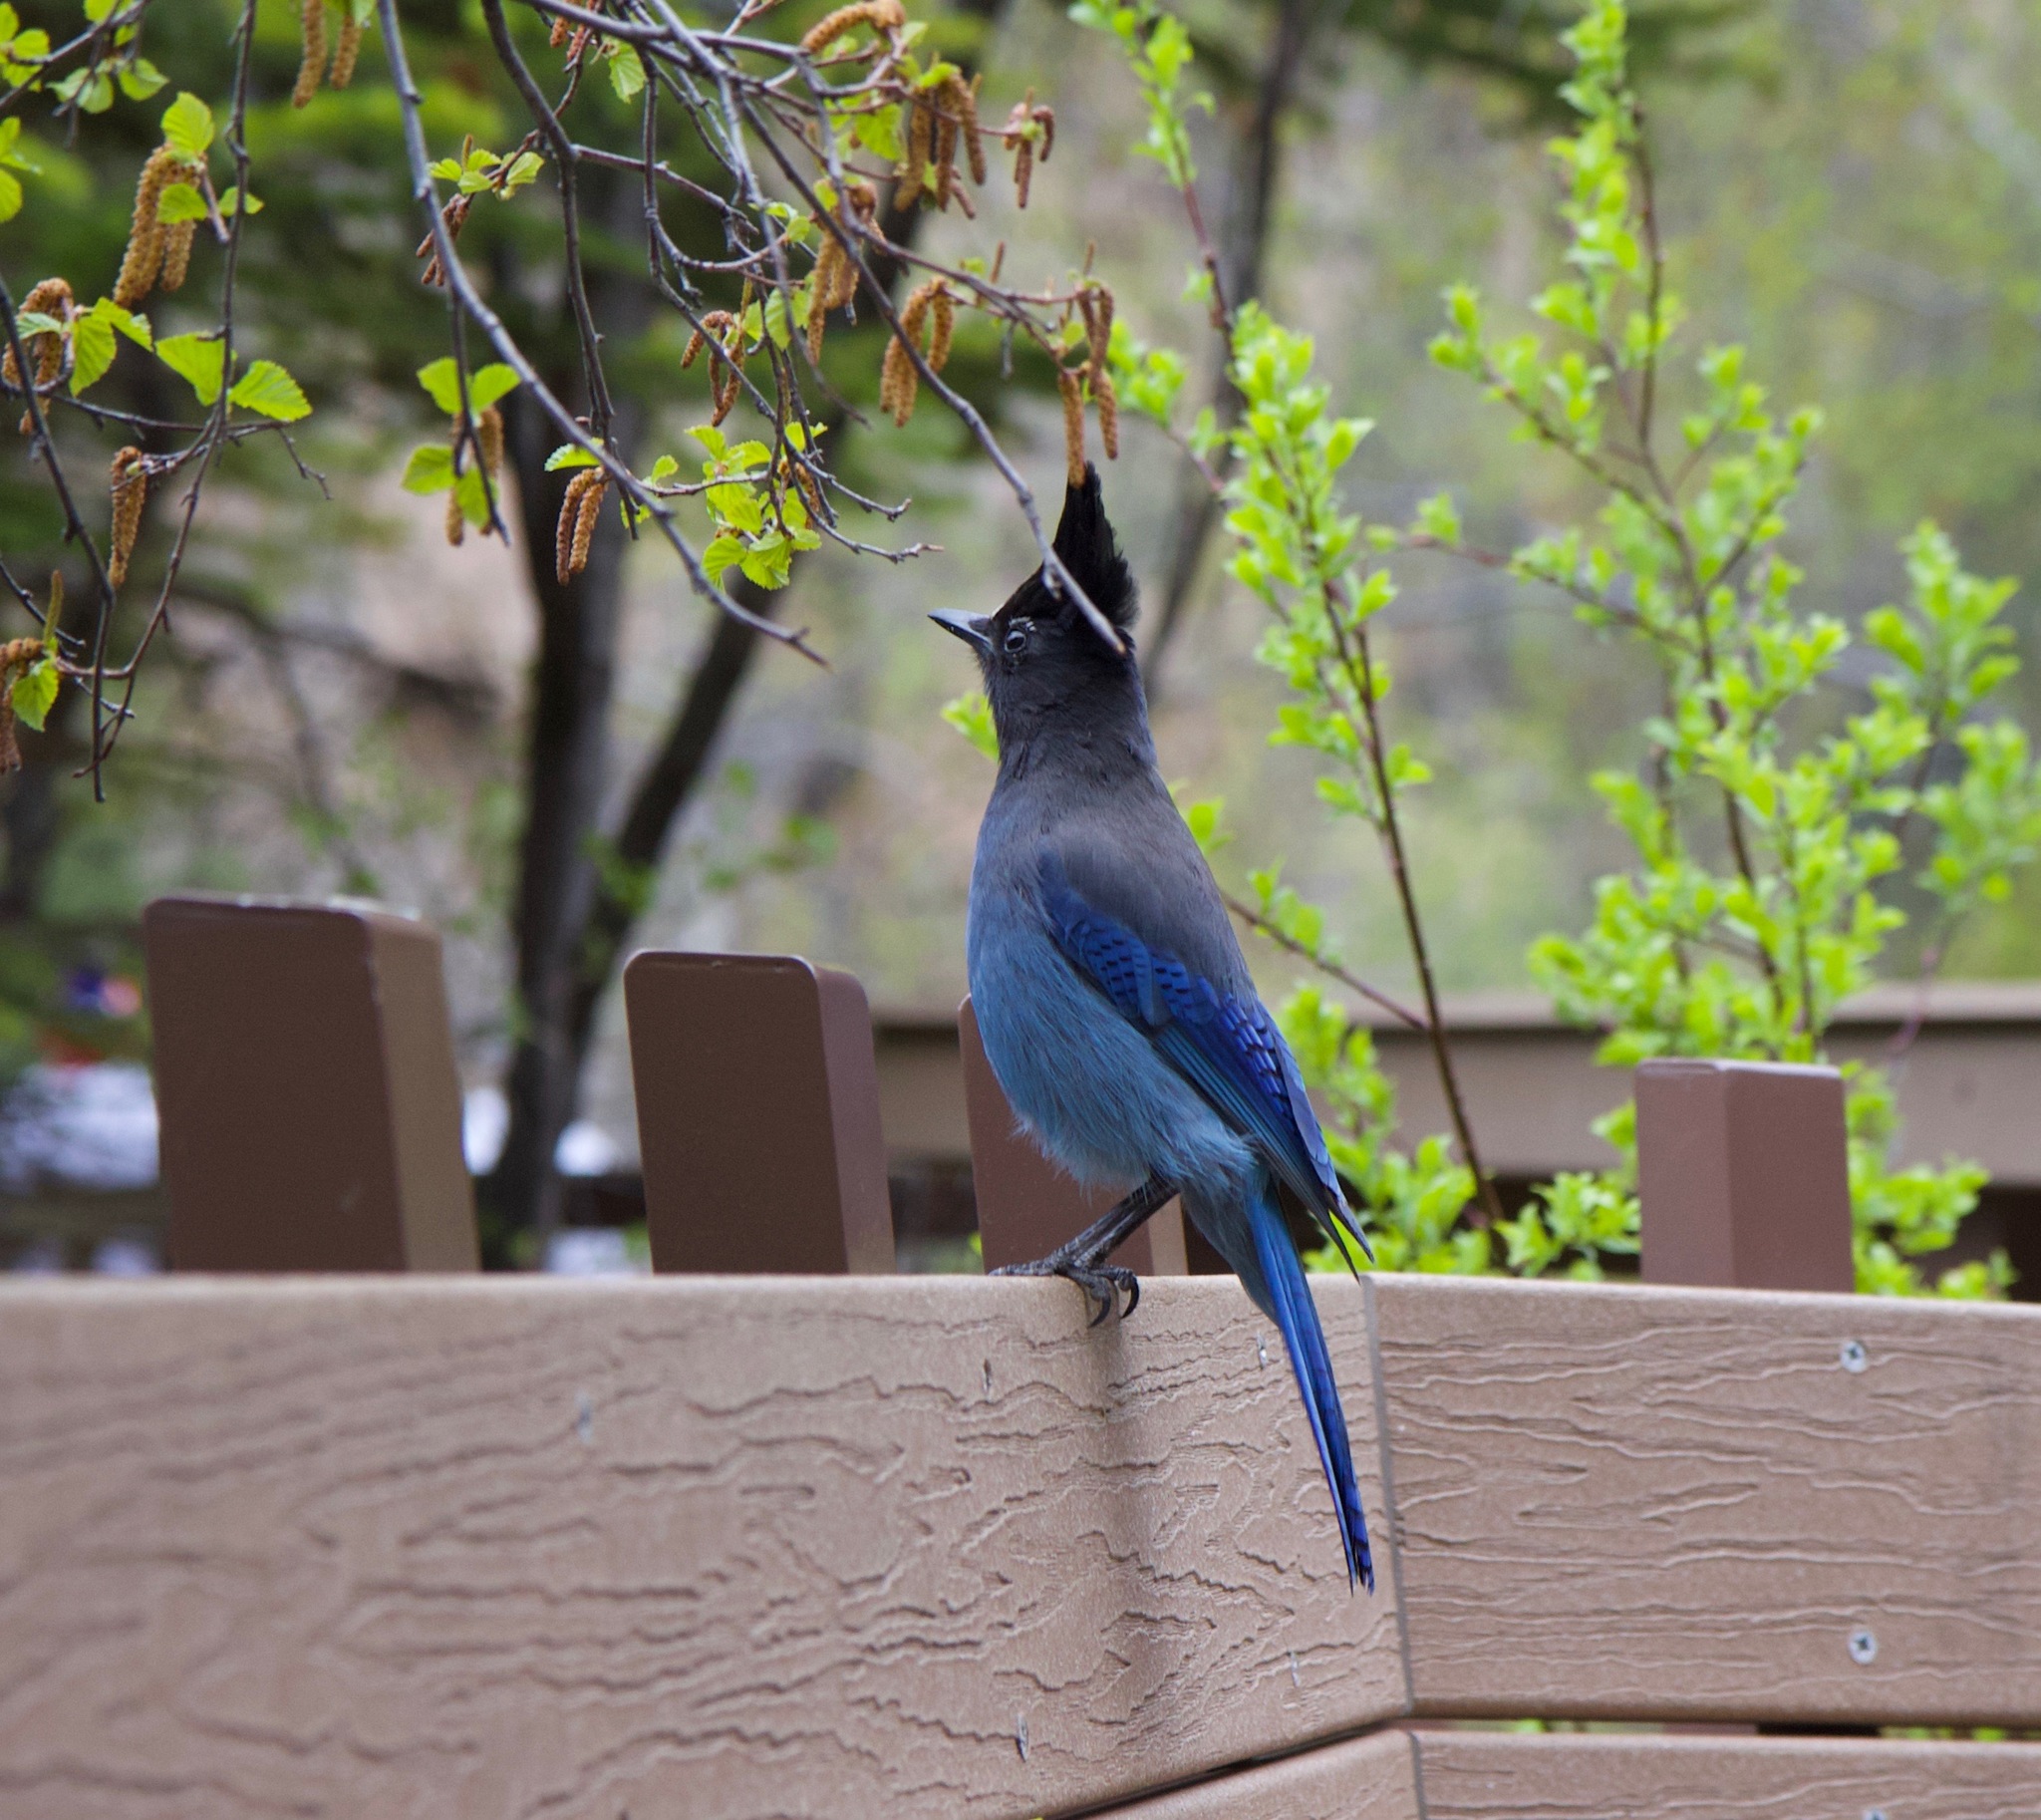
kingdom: Animalia
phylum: Chordata
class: Aves
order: Passeriformes
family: Corvidae
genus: Cyanocitta
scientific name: Cyanocitta stelleri
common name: Steller's jay
